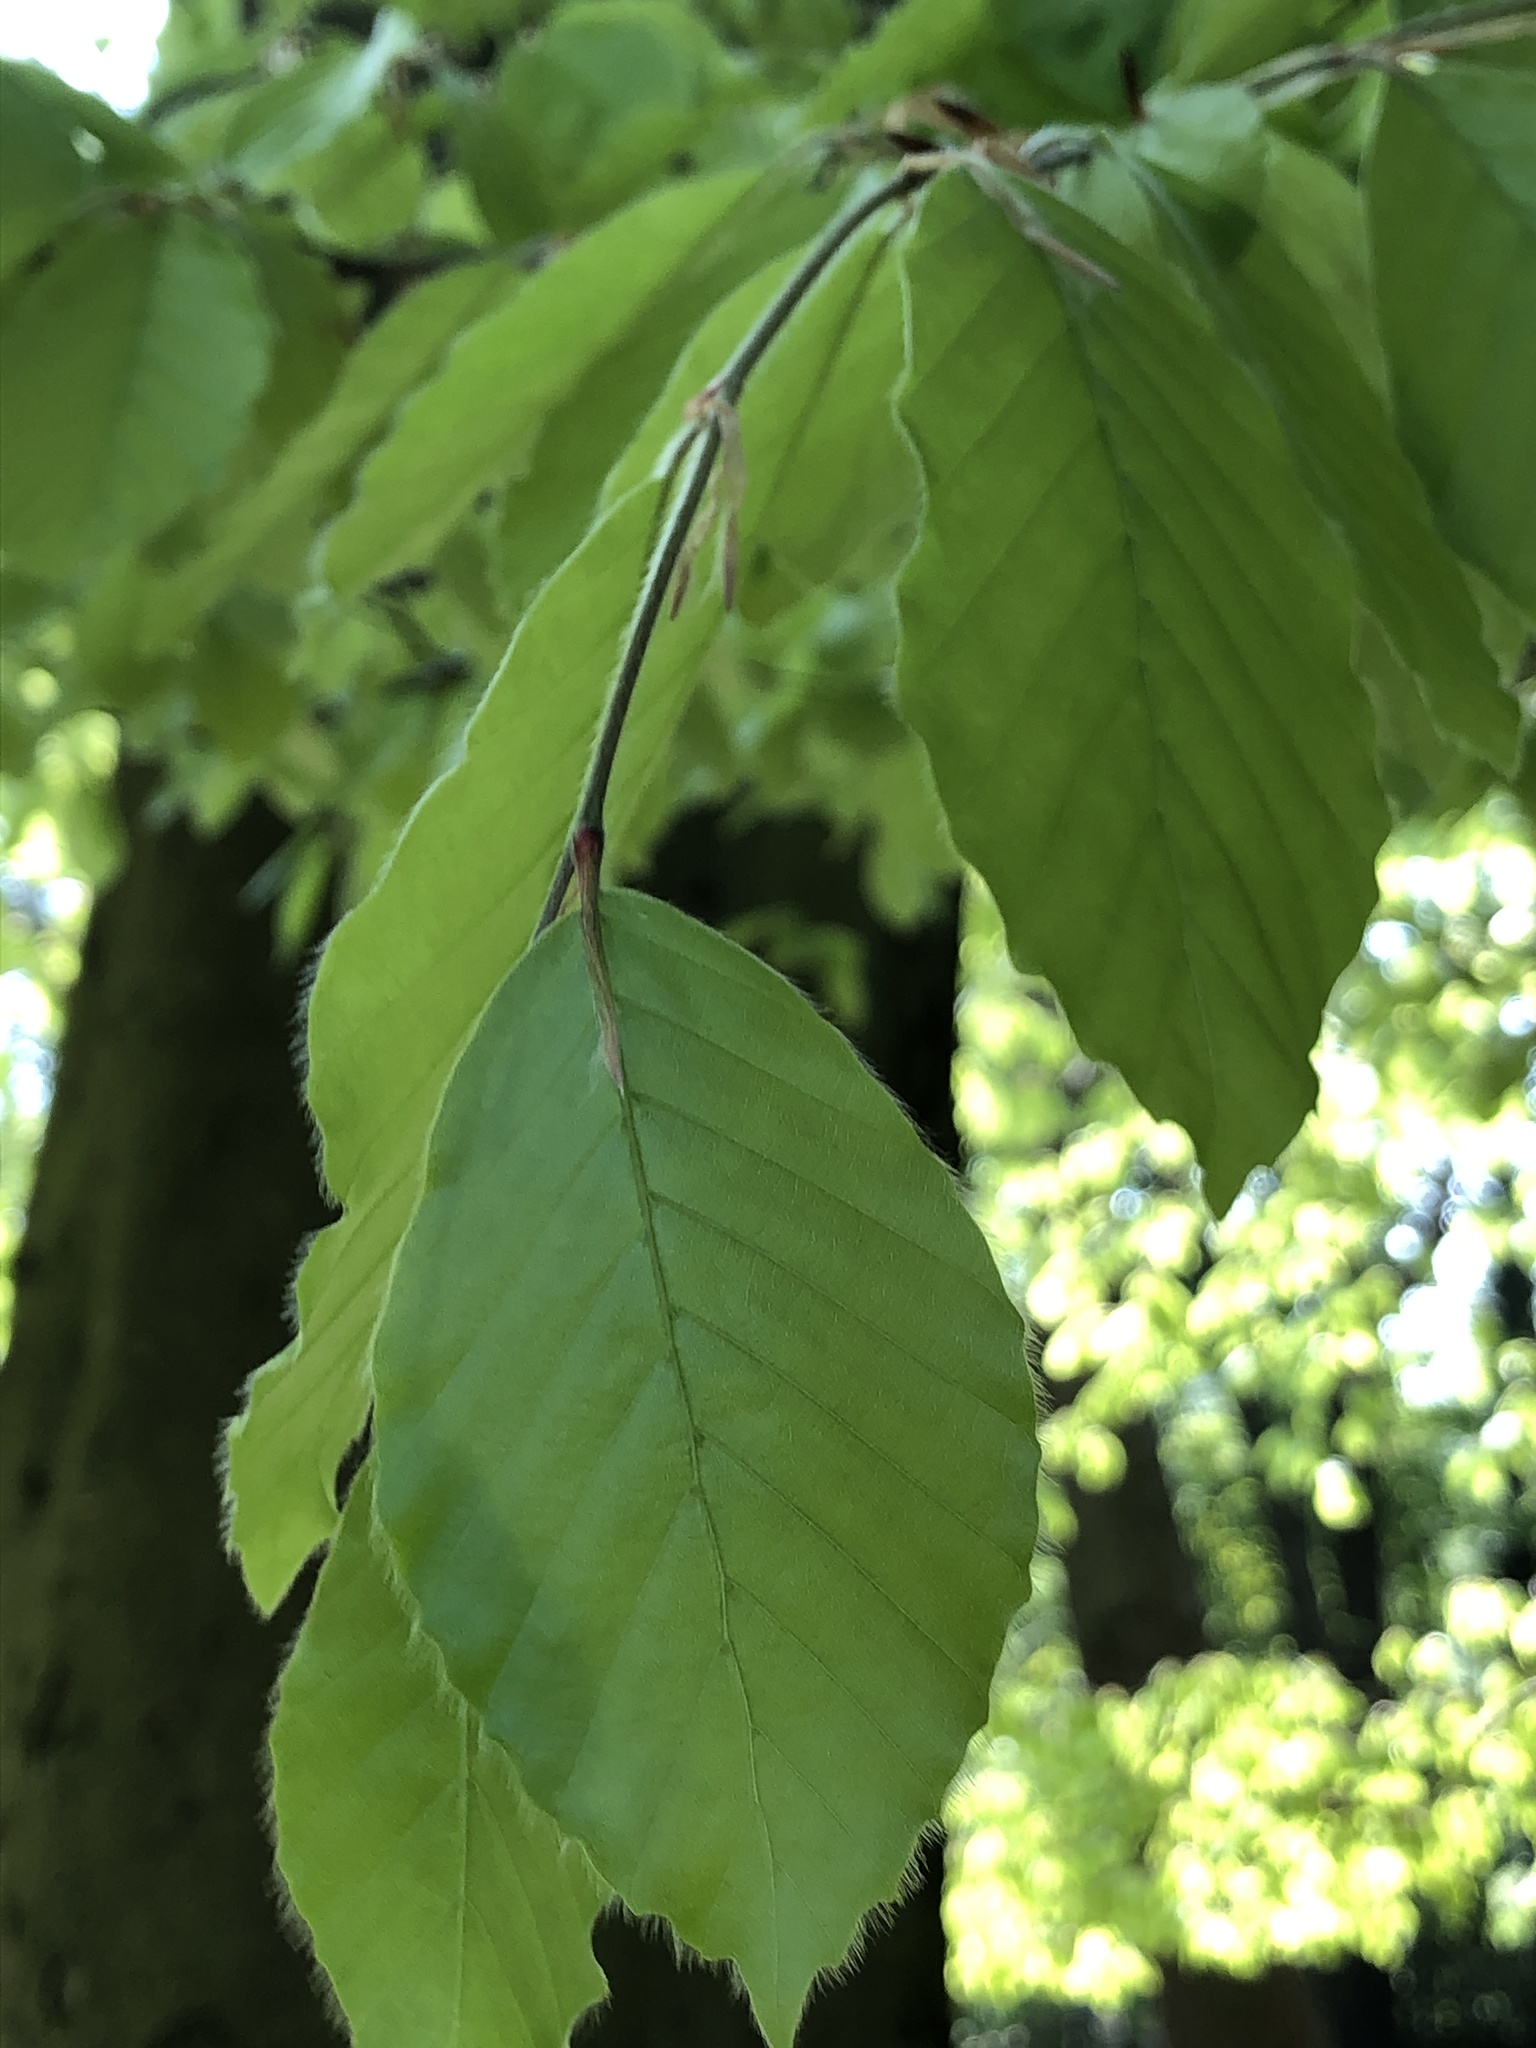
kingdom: Plantae
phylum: Tracheophyta
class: Magnoliopsida
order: Fagales
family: Fagaceae
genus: Fagus
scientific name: Fagus sylvatica
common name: Beech
